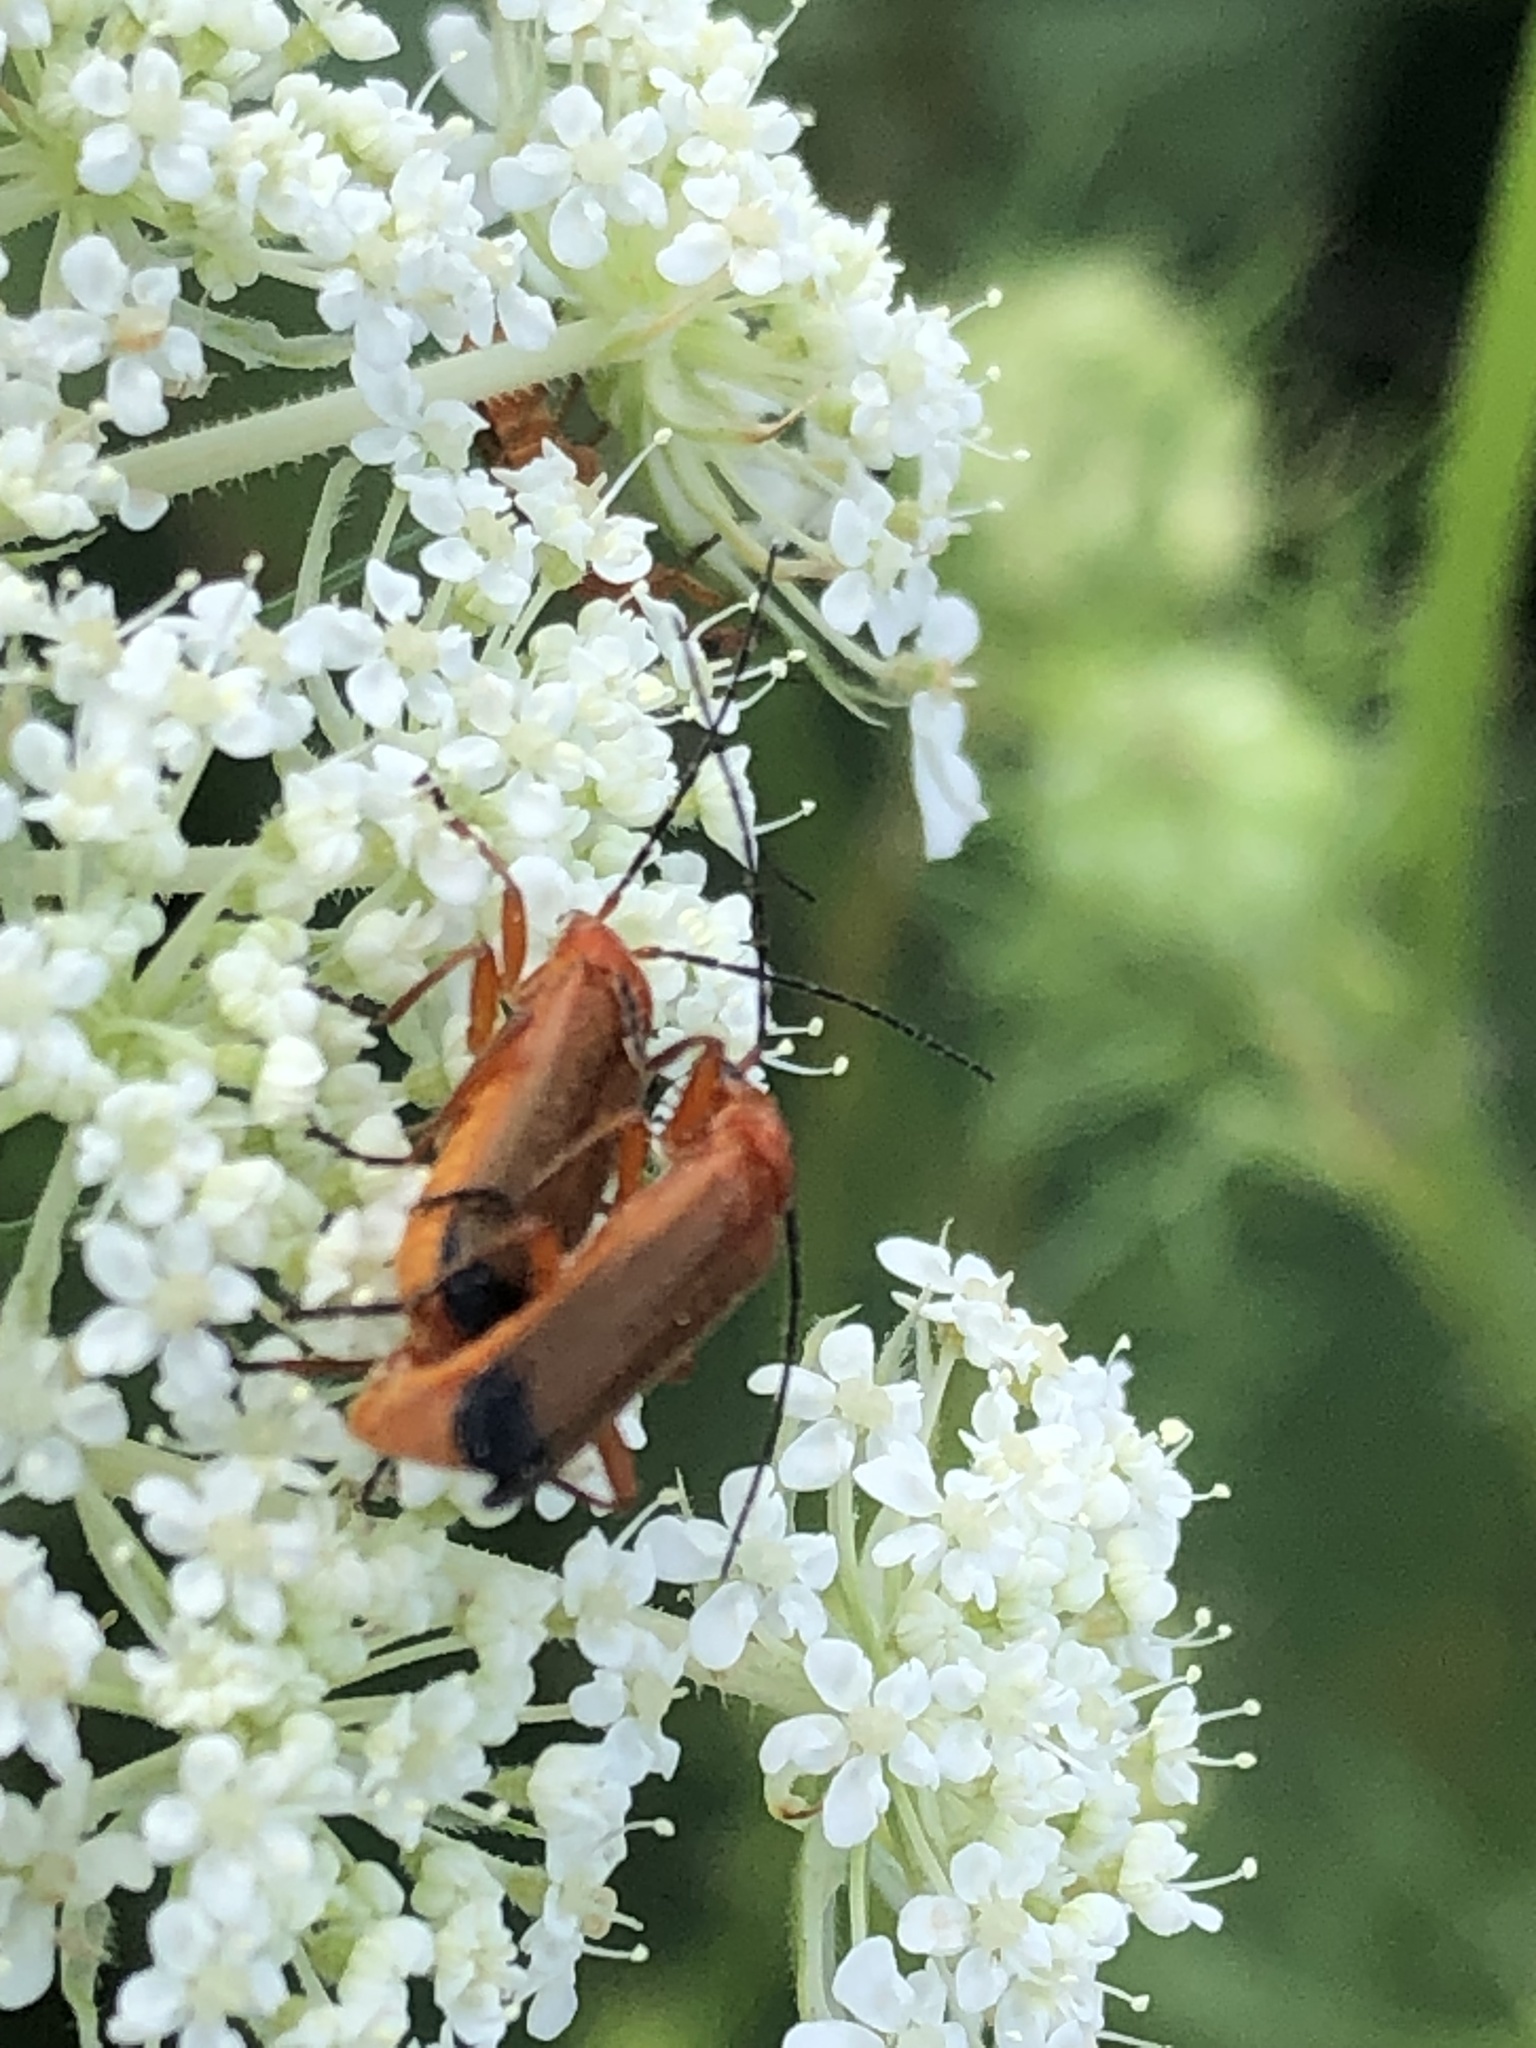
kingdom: Animalia
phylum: Arthropoda
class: Insecta
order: Coleoptera
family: Cantharidae
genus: Rhagonycha
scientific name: Rhagonycha fulva
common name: Common red soldier beetle
